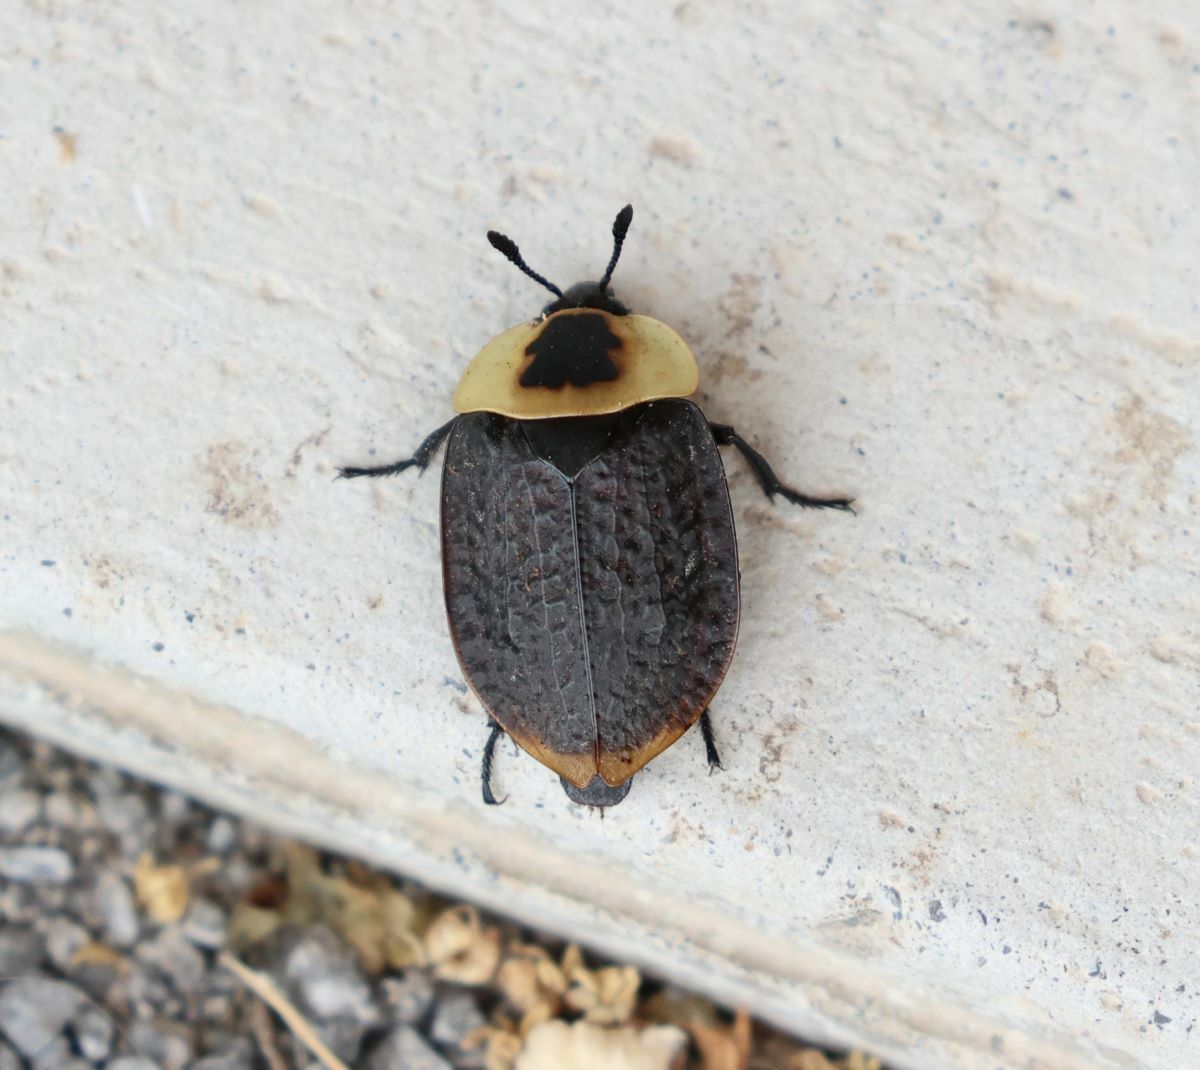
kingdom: Animalia
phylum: Arthropoda
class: Insecta
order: Coleoptera
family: Staphylinidae
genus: Necrophila
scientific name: Necrophila americana
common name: American carrion beetle
